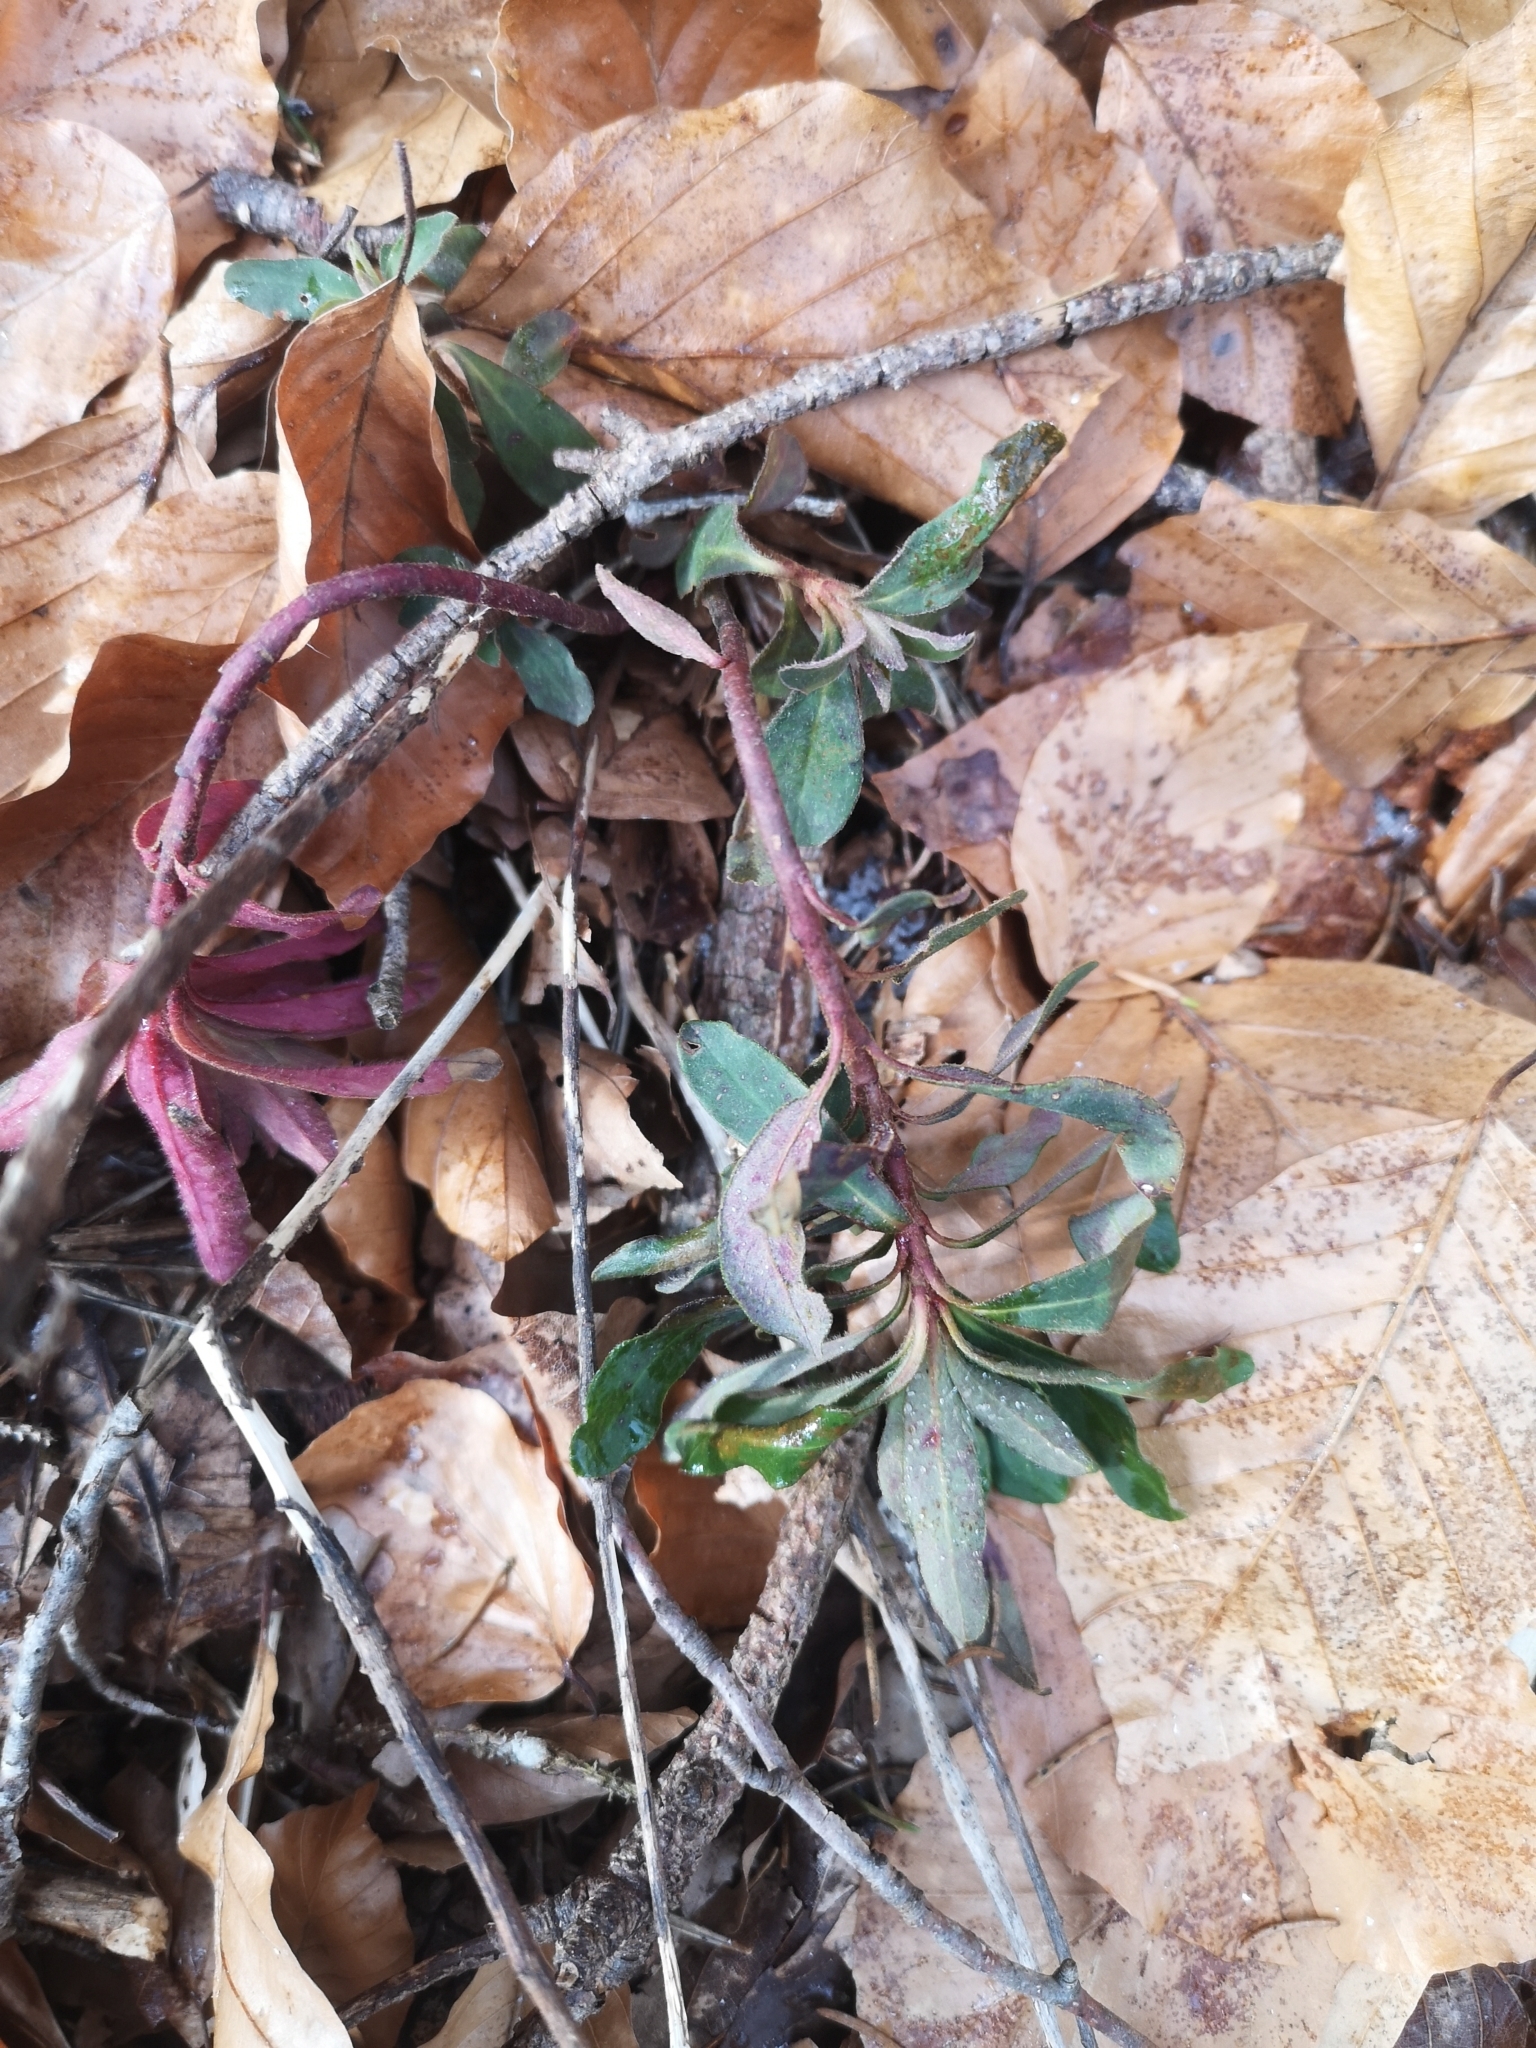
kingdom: Plantae
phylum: Tracheophyta
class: Magnoliopsida
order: Malpighiales
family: Euphorbiaceae
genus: Euphorbia
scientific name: Euphorbia amygdaloides
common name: Wood spurge
